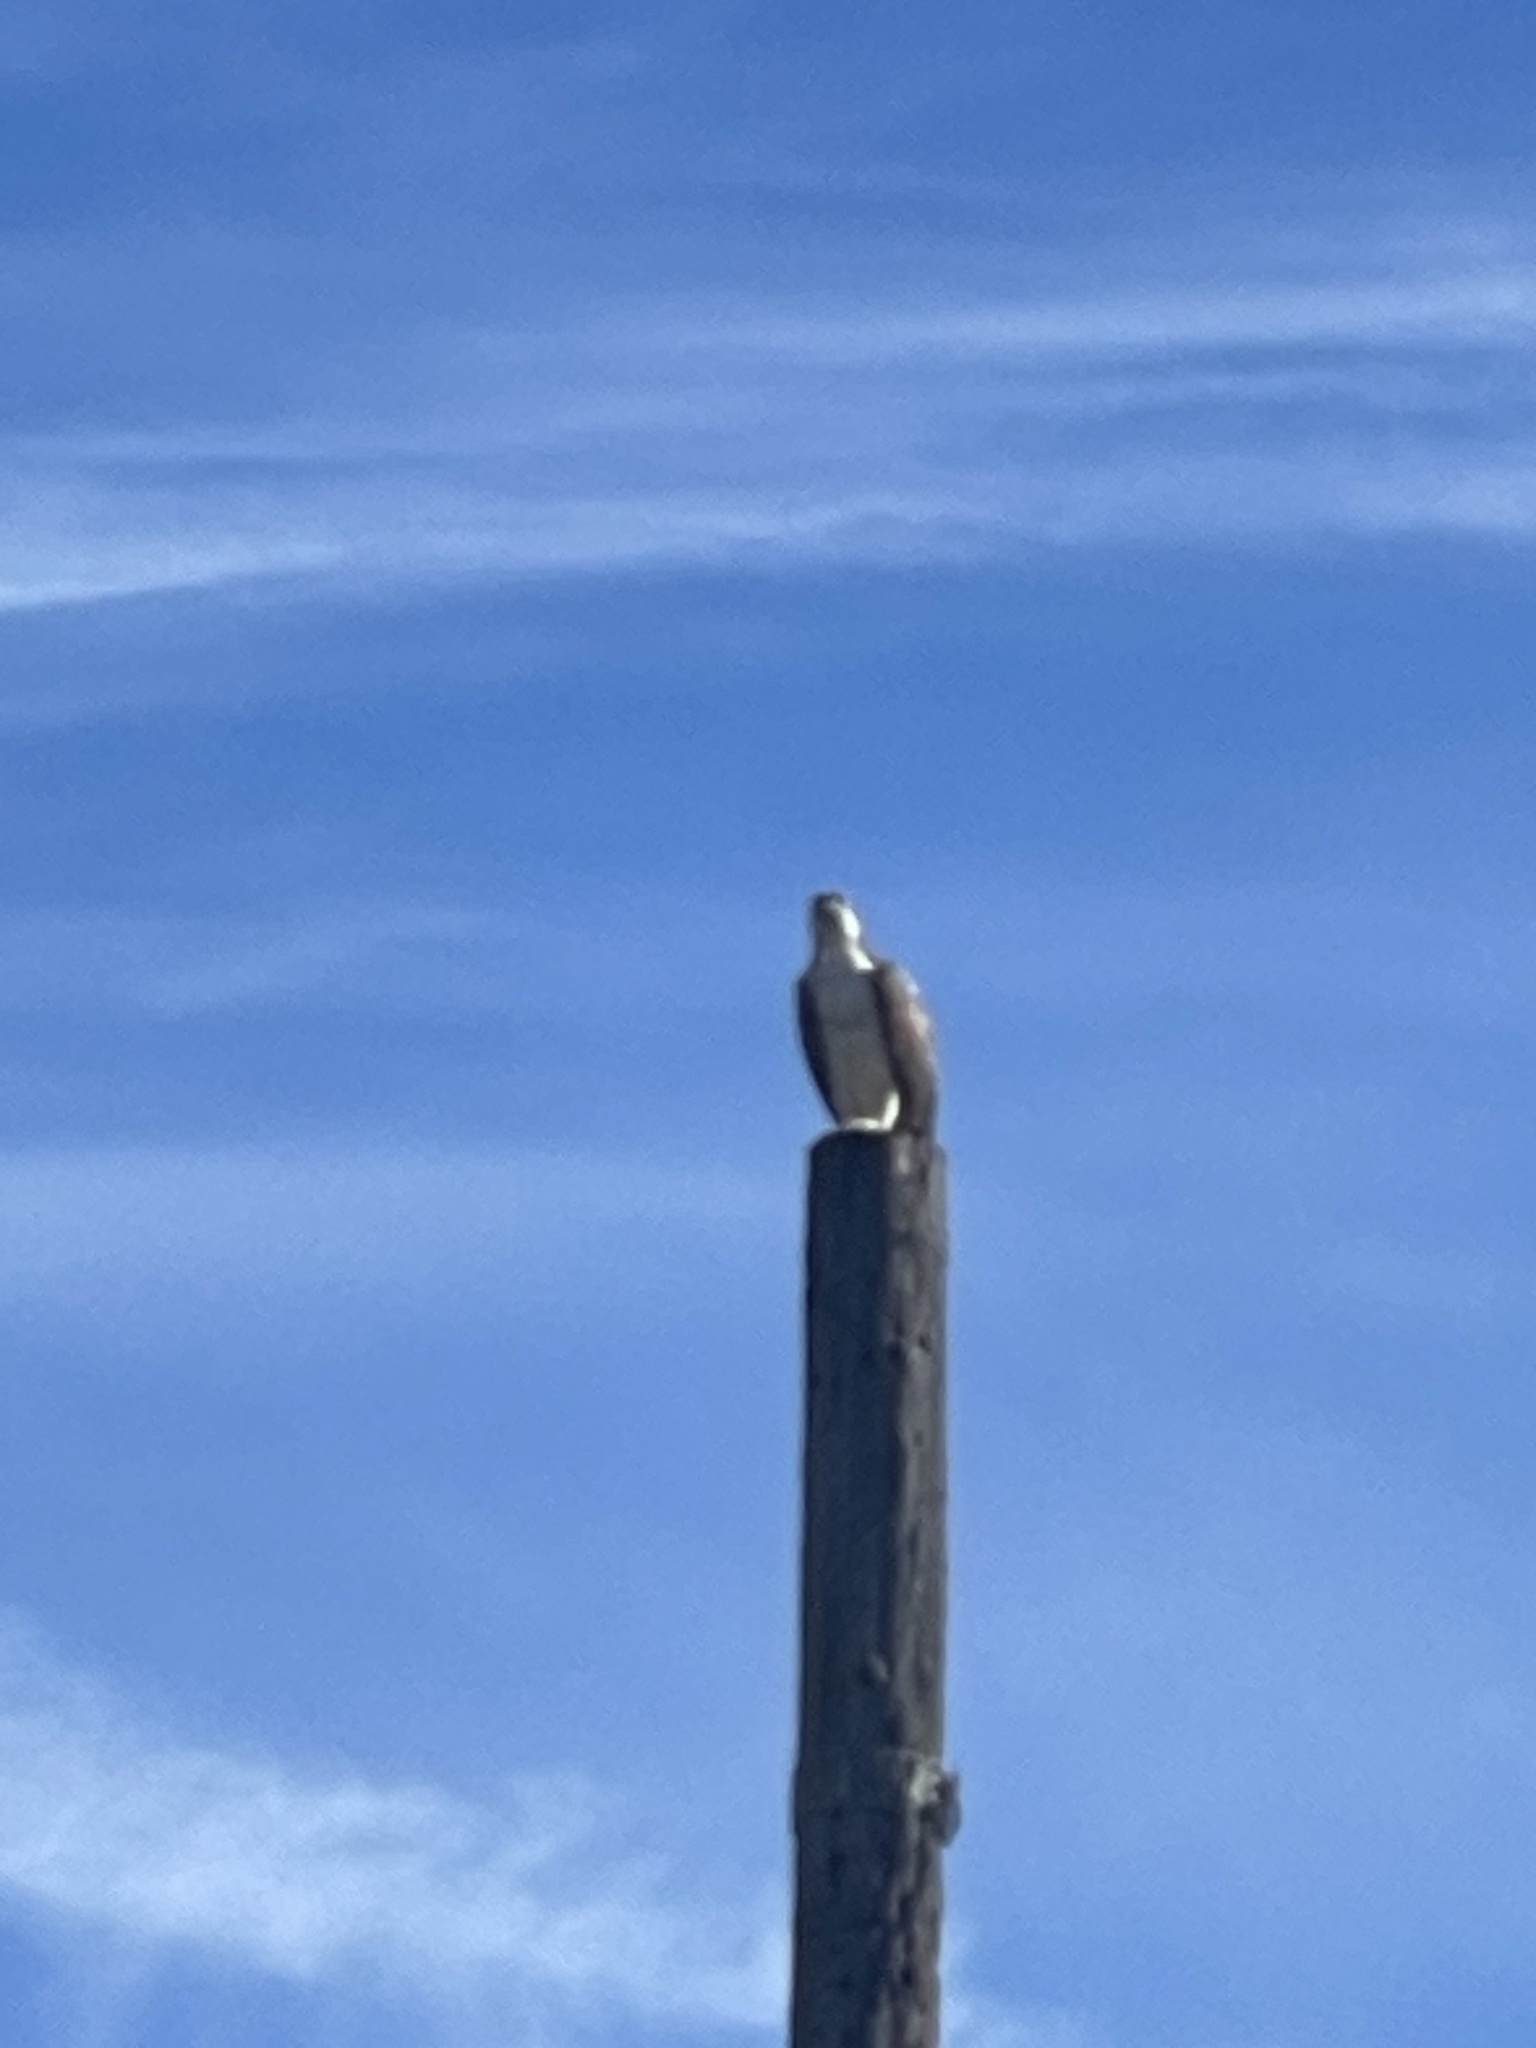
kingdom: Animalia
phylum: Chordata
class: Aves
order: Accipitriformes
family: Pandionidae
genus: Pandion
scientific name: Pandion haliaetus
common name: Osprey
